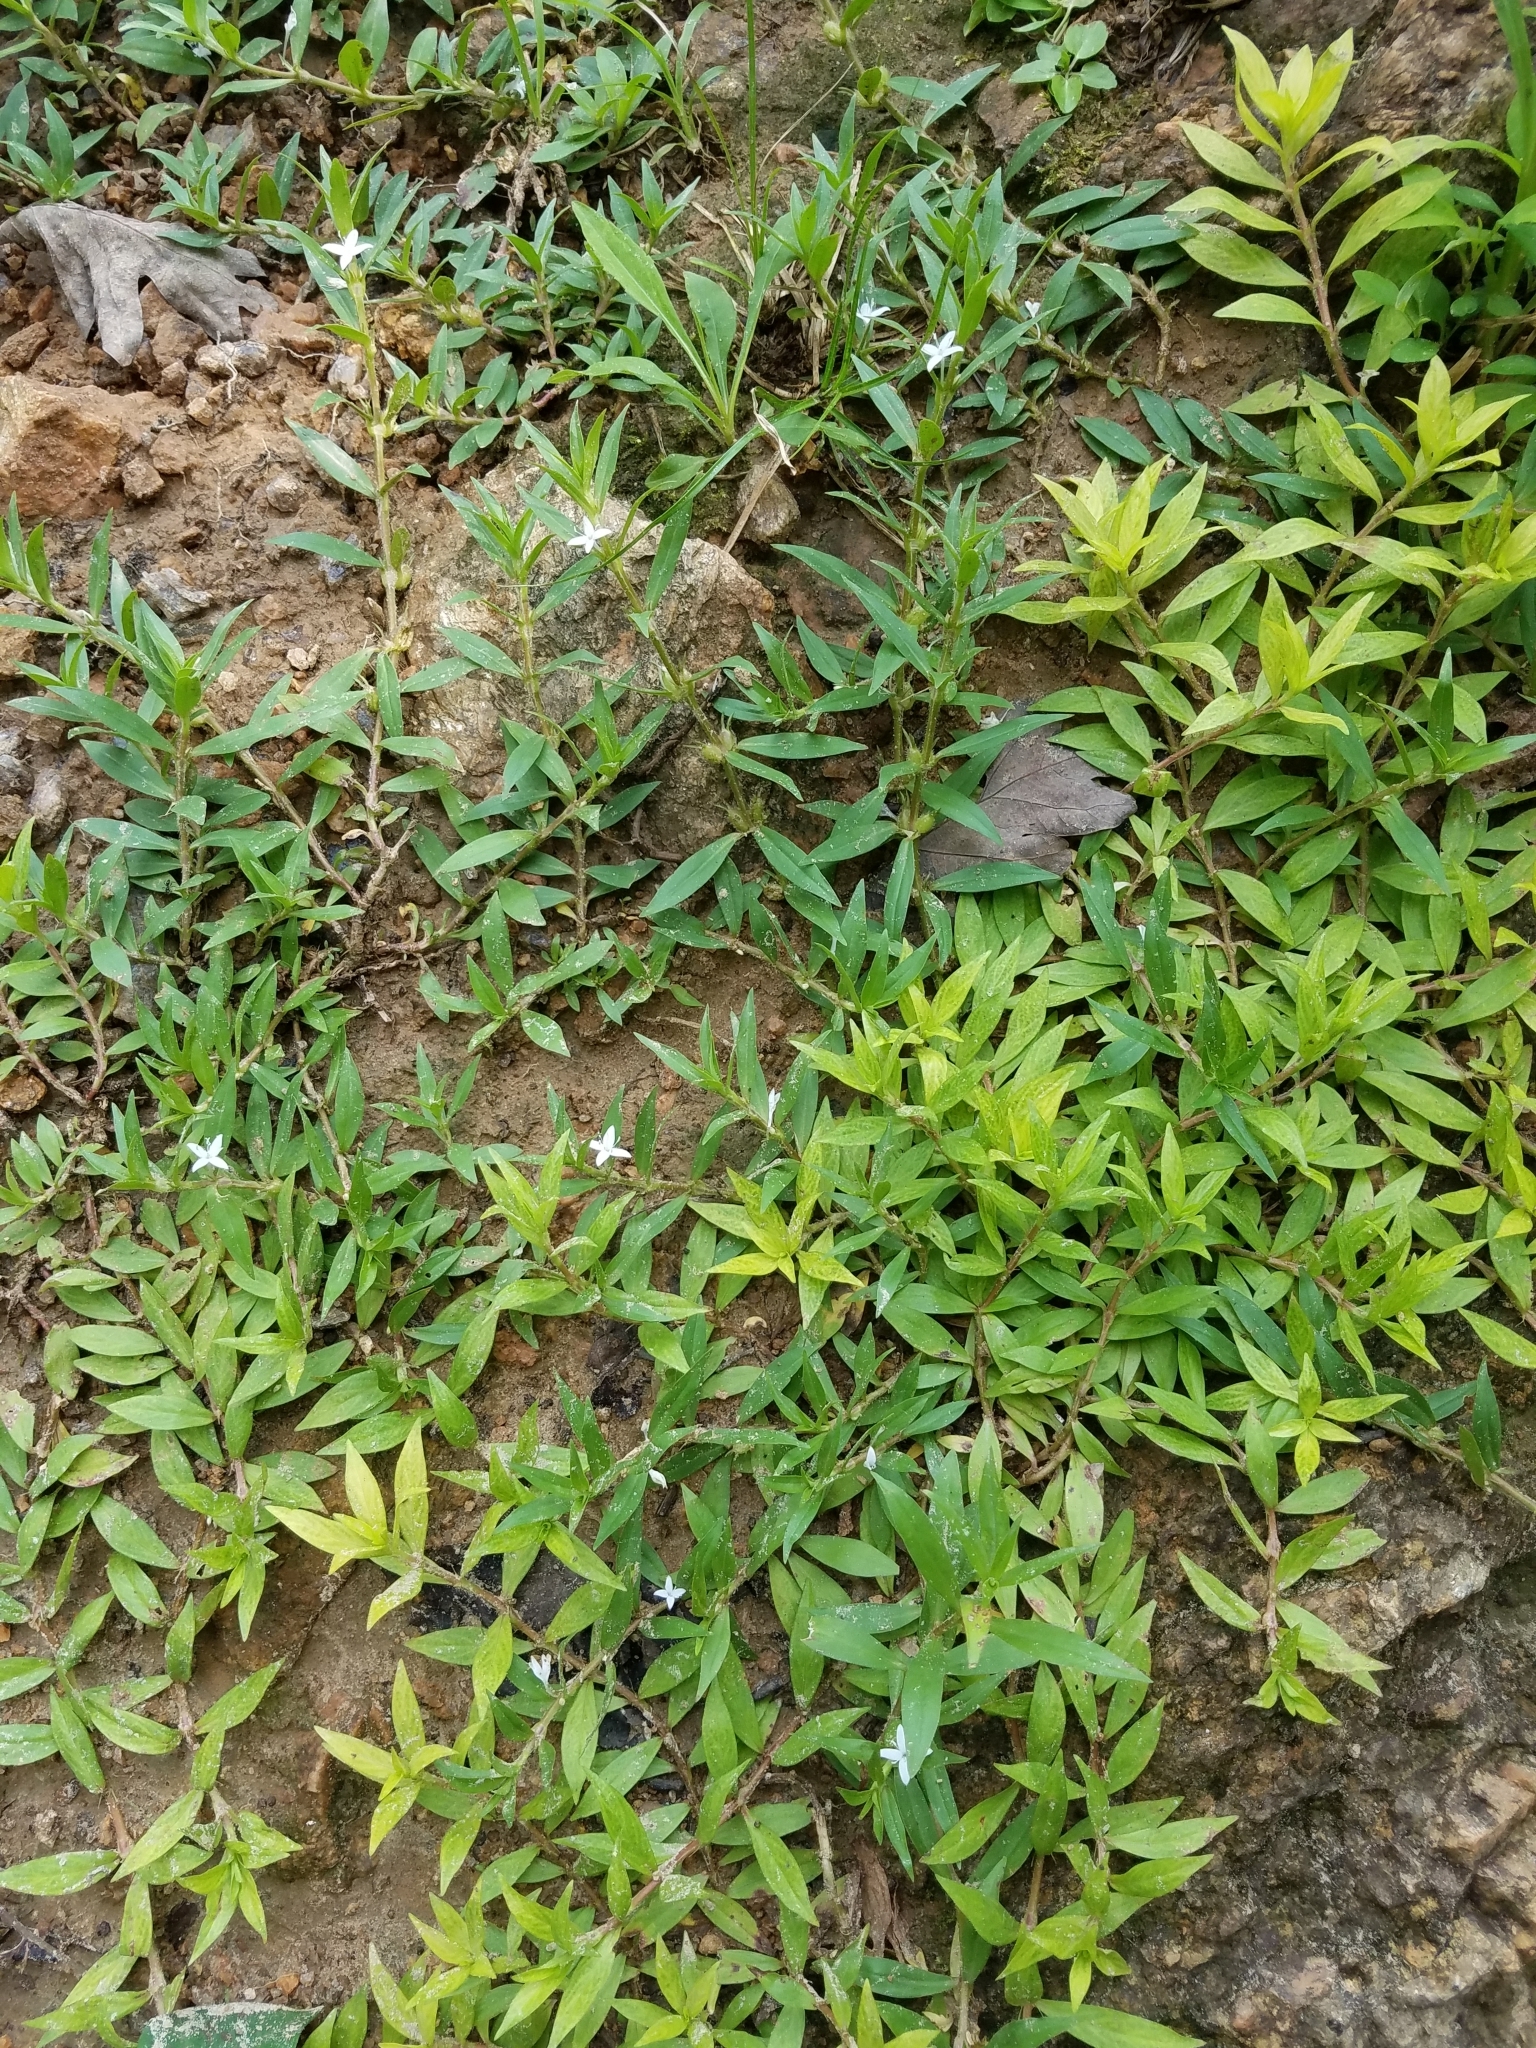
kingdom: Plantae
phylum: Tracheophyta
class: Magnoliopsida
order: Gentianales
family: Rubiaceae
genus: Diodia
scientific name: Diodia virginiana
